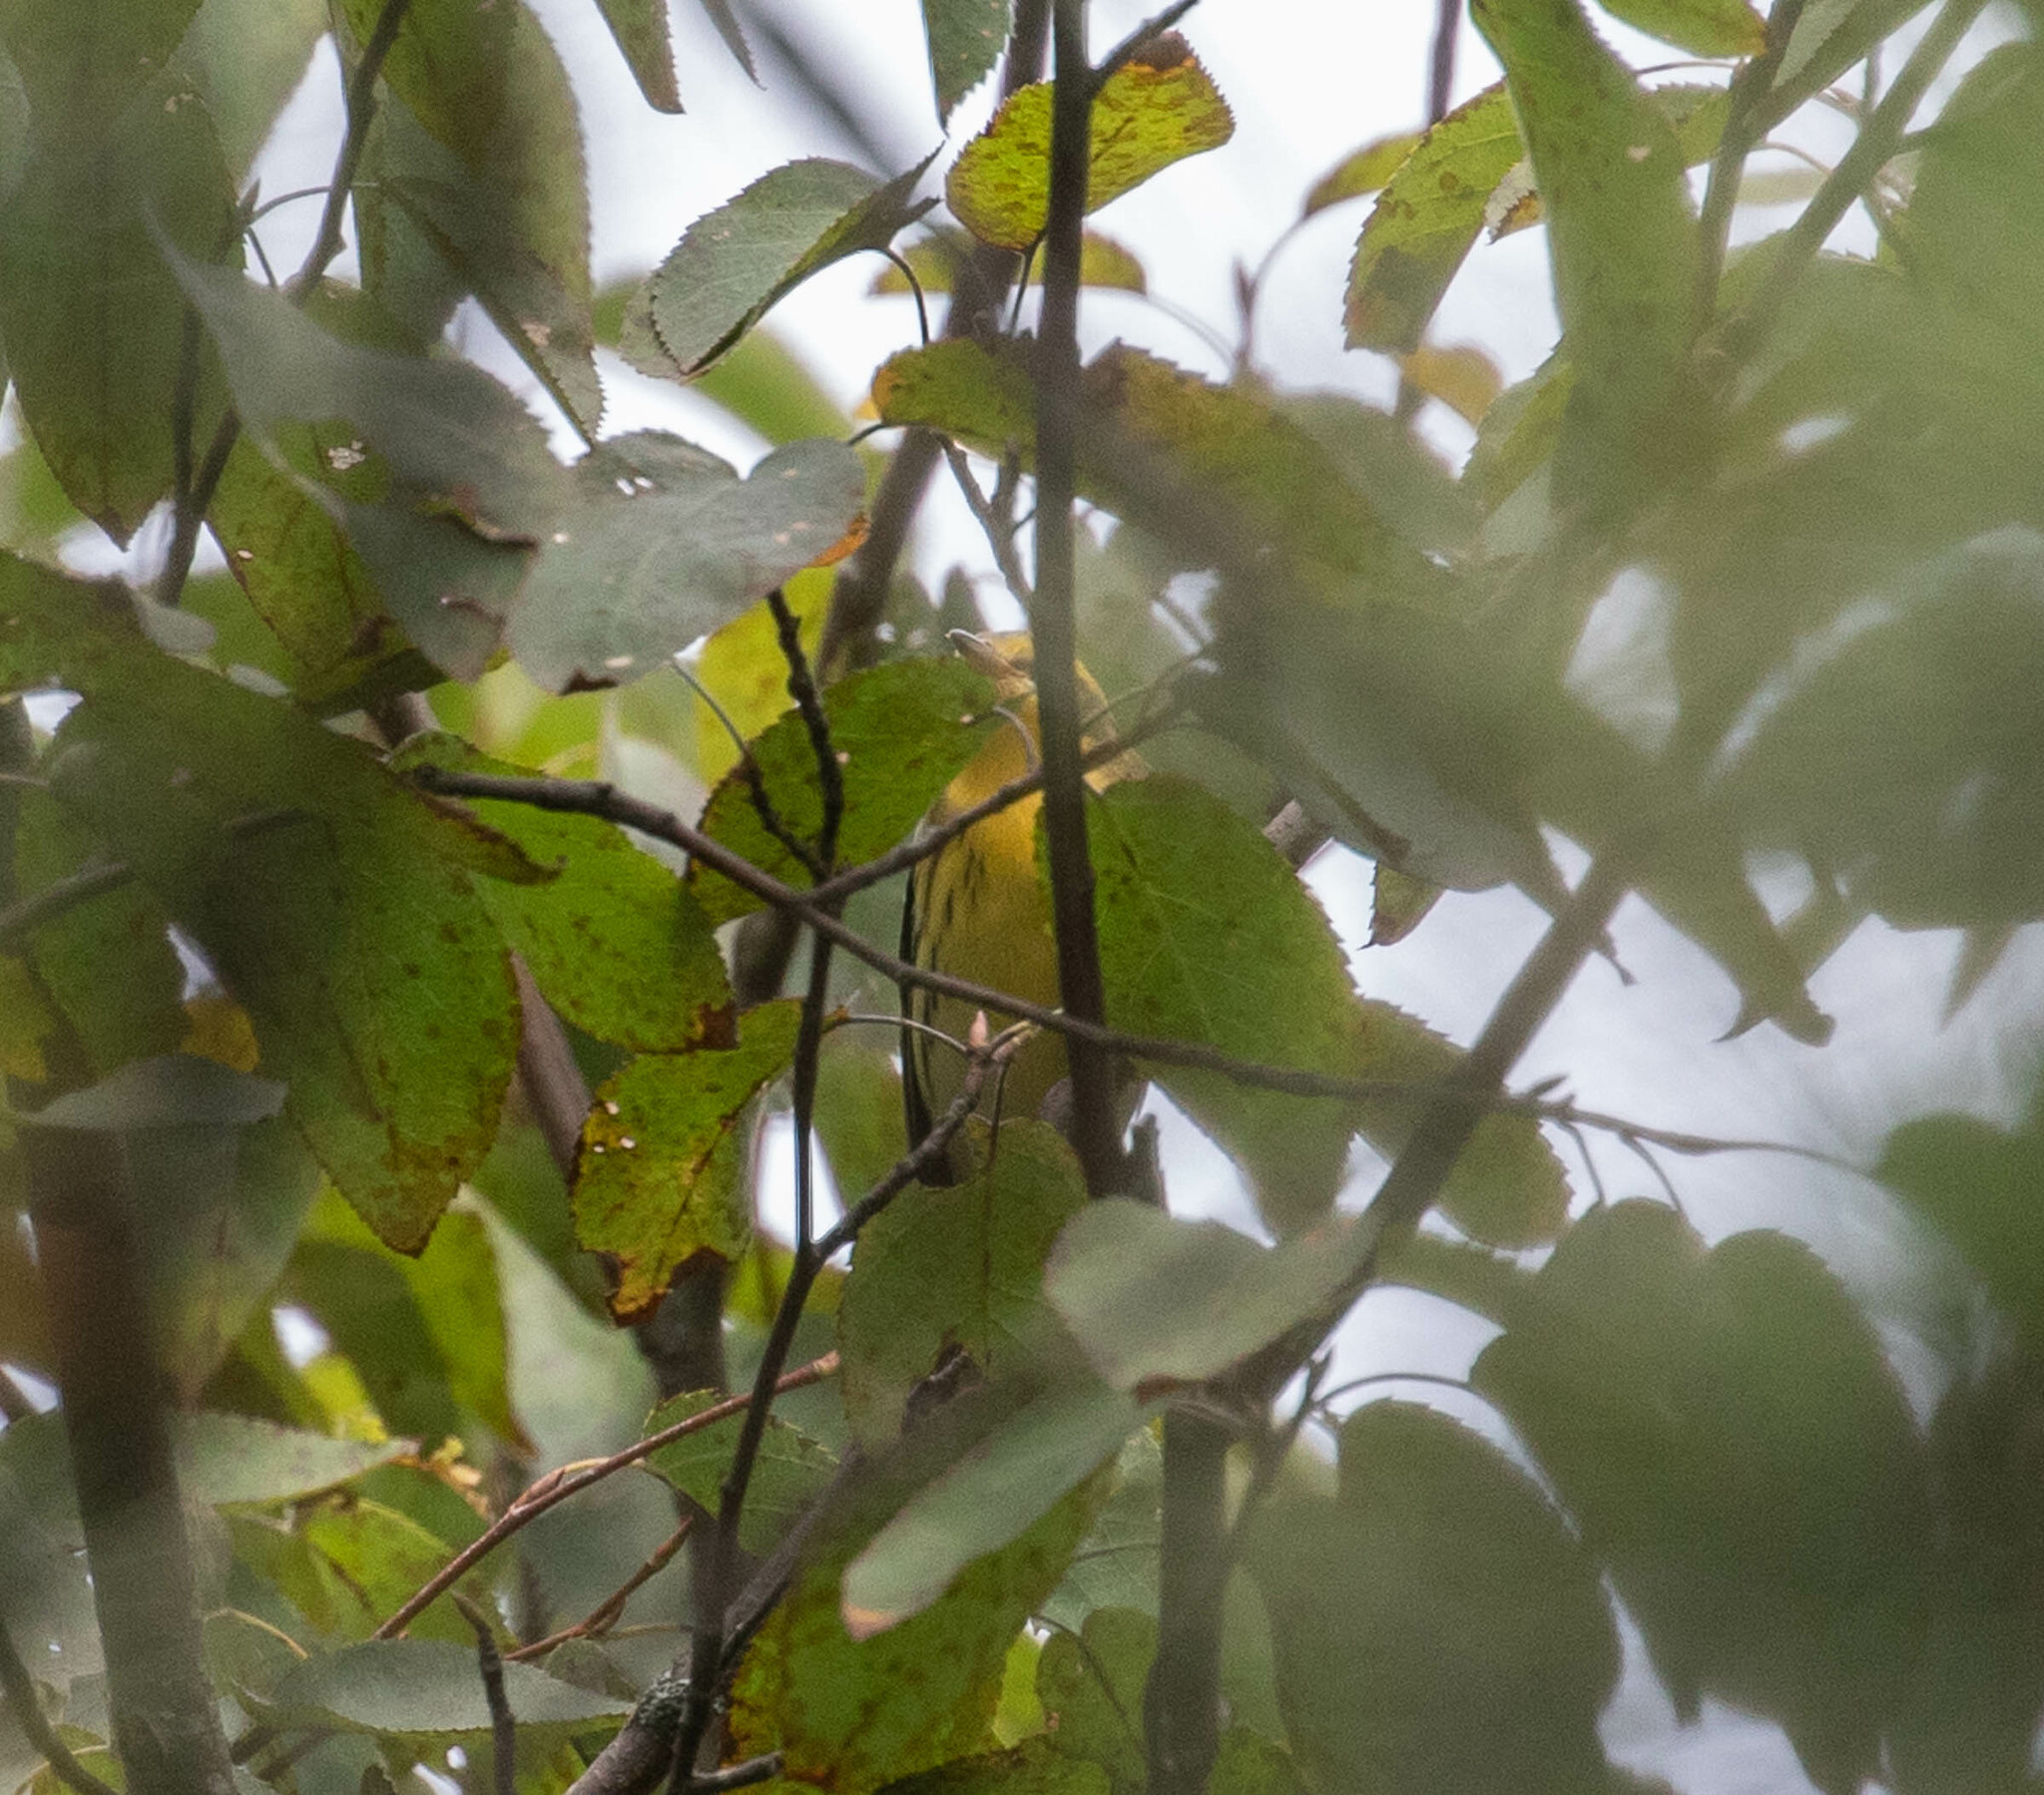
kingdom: Animalia
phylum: Chordata
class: Aves
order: Passeriformes
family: Parulidae
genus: Setophaga
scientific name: Setophaga fusca
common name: Blackburnian warbler
